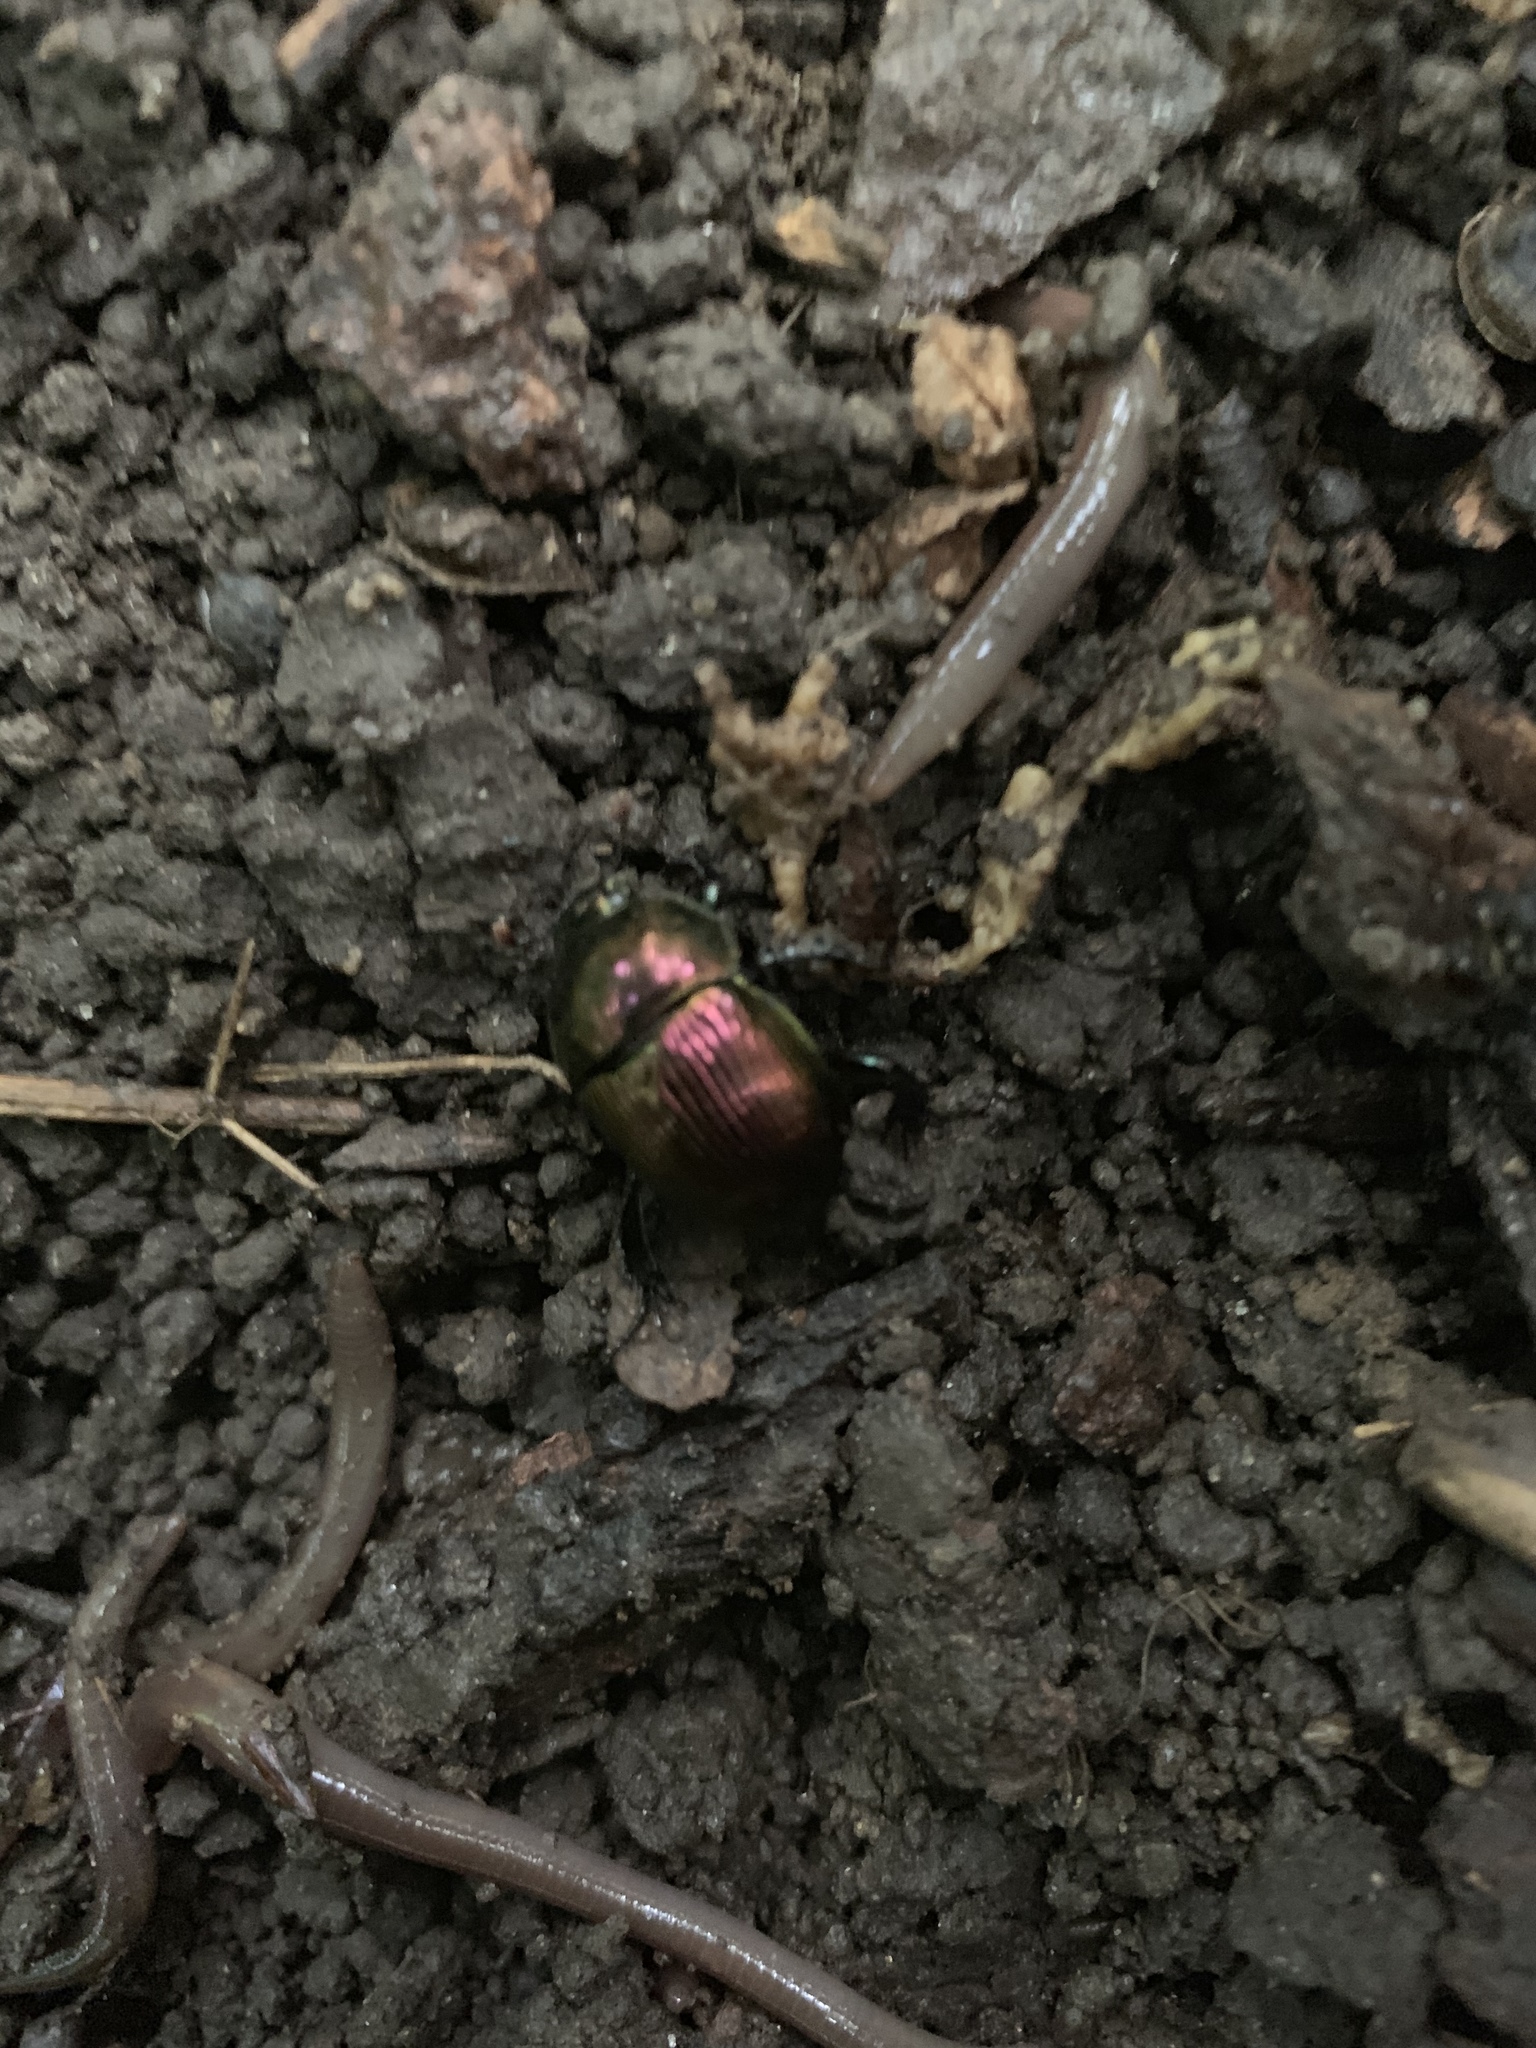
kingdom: Animalia
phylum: Arthropoda
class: Insecta
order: Coleoptera
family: Geotrupidae
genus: Geotrupes
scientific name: Geotrupes splendidus
